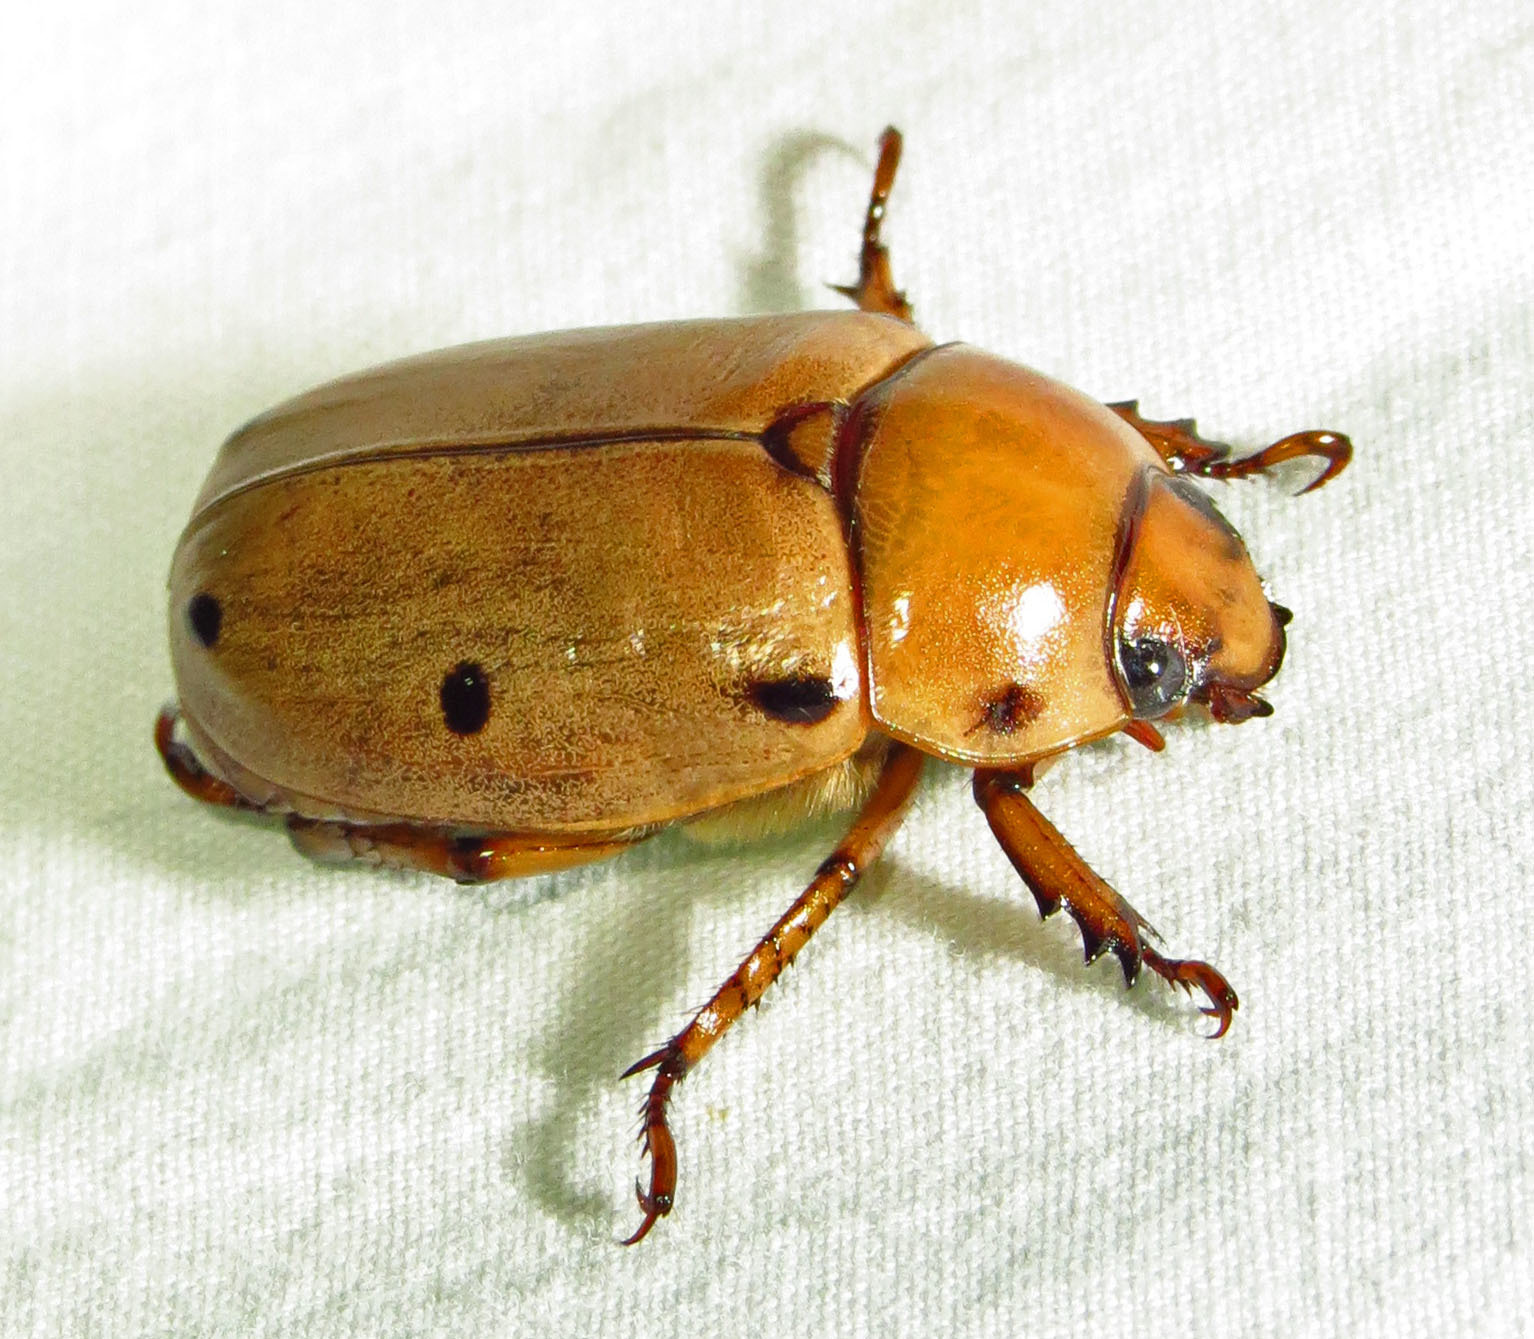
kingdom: Animalia
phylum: Arthropoda
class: Insecta
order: Coleoptera
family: Scarabaeidae
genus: Pelidnota
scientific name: Pelidnota punctata
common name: Grapevine beetle
